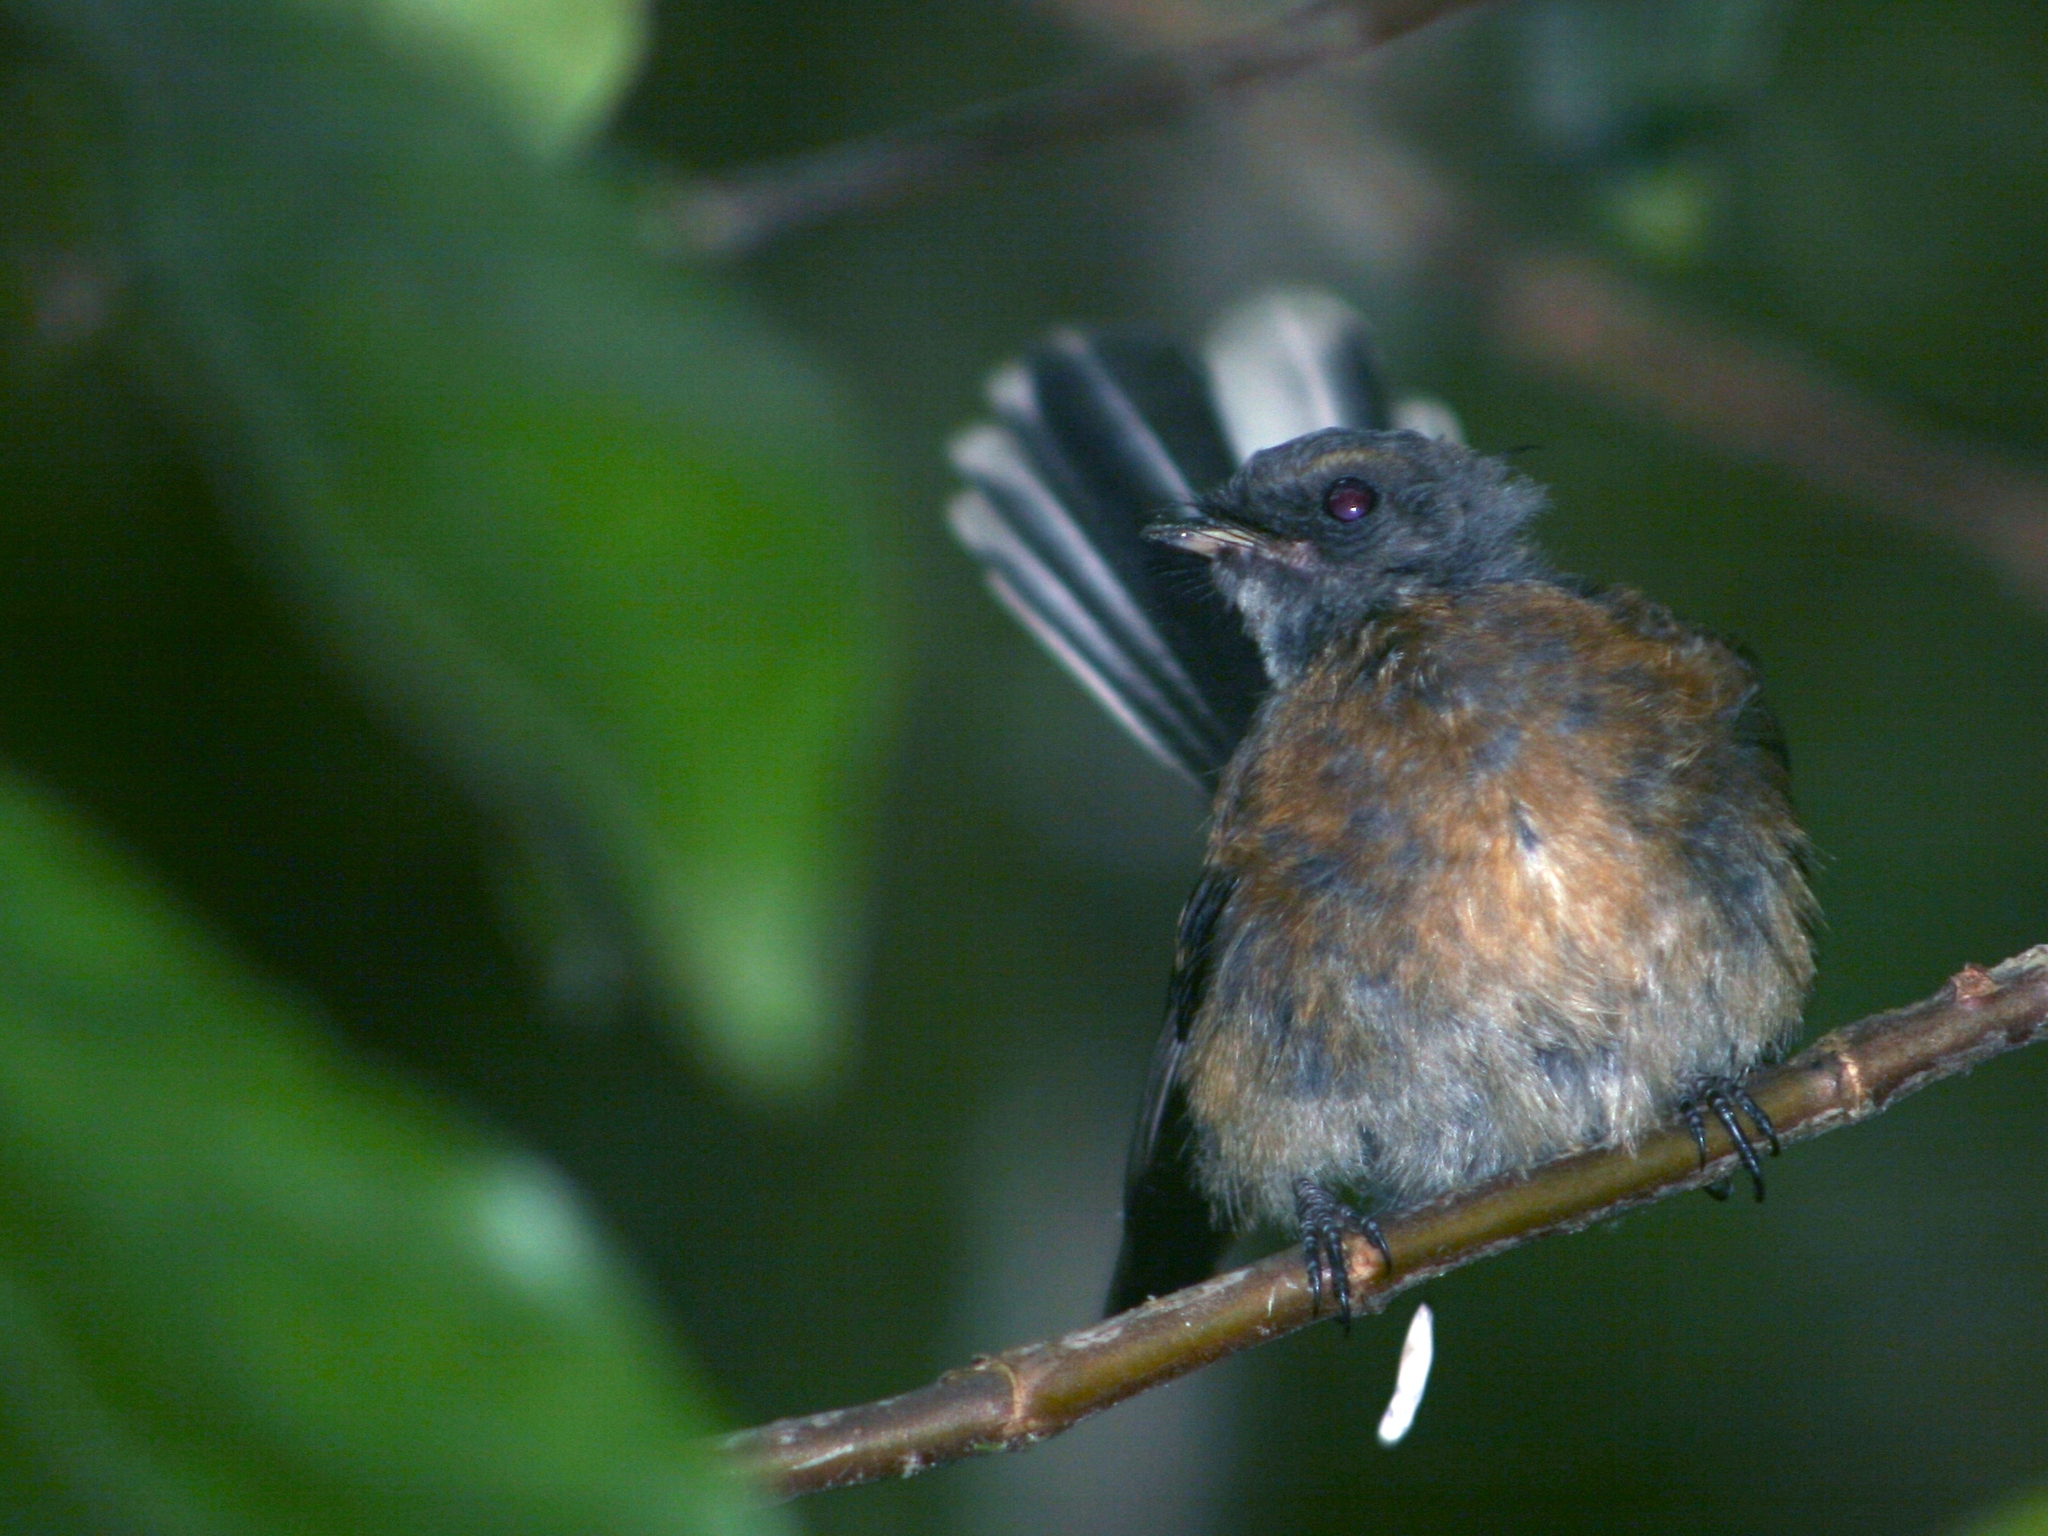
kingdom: Animalia
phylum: Chordata
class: Aves
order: Passeriformes
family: Rhipiduridae
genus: Rhipidura
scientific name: Rhipidura fuliginosa
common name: New zealand fantail
